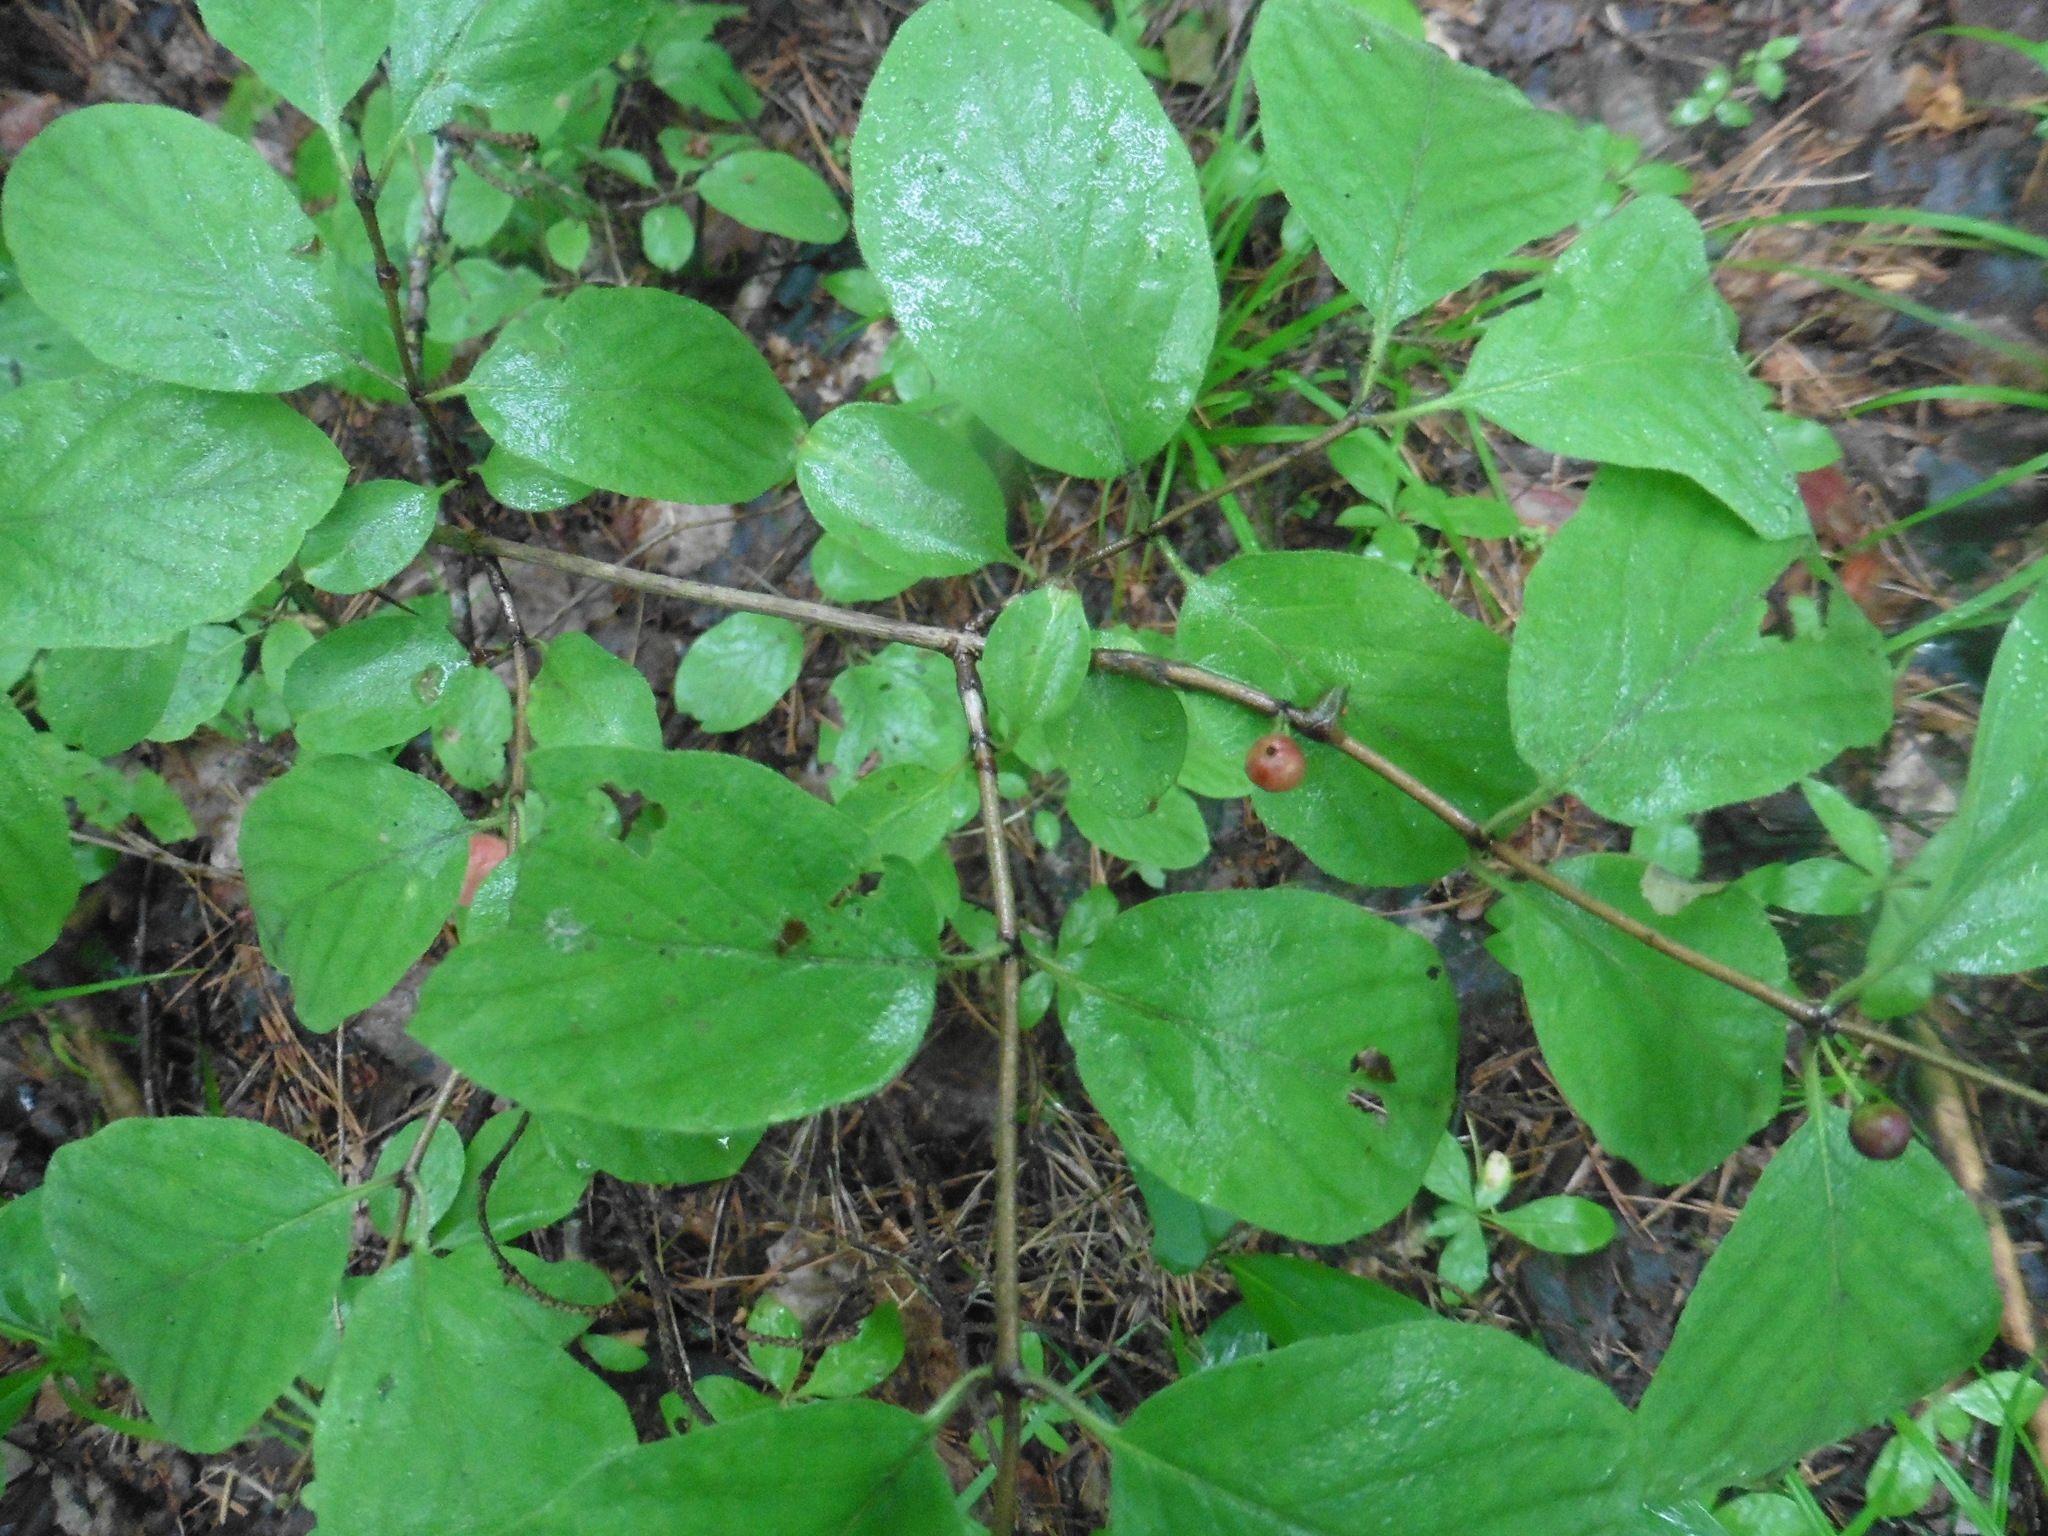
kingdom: Plantae
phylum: Tracheophyta
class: Magnoliopsida
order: Dipsacales
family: Caprifoliaceae
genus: Lonicera
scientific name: Lonicera xylosteum
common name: Fly honeysuckle
